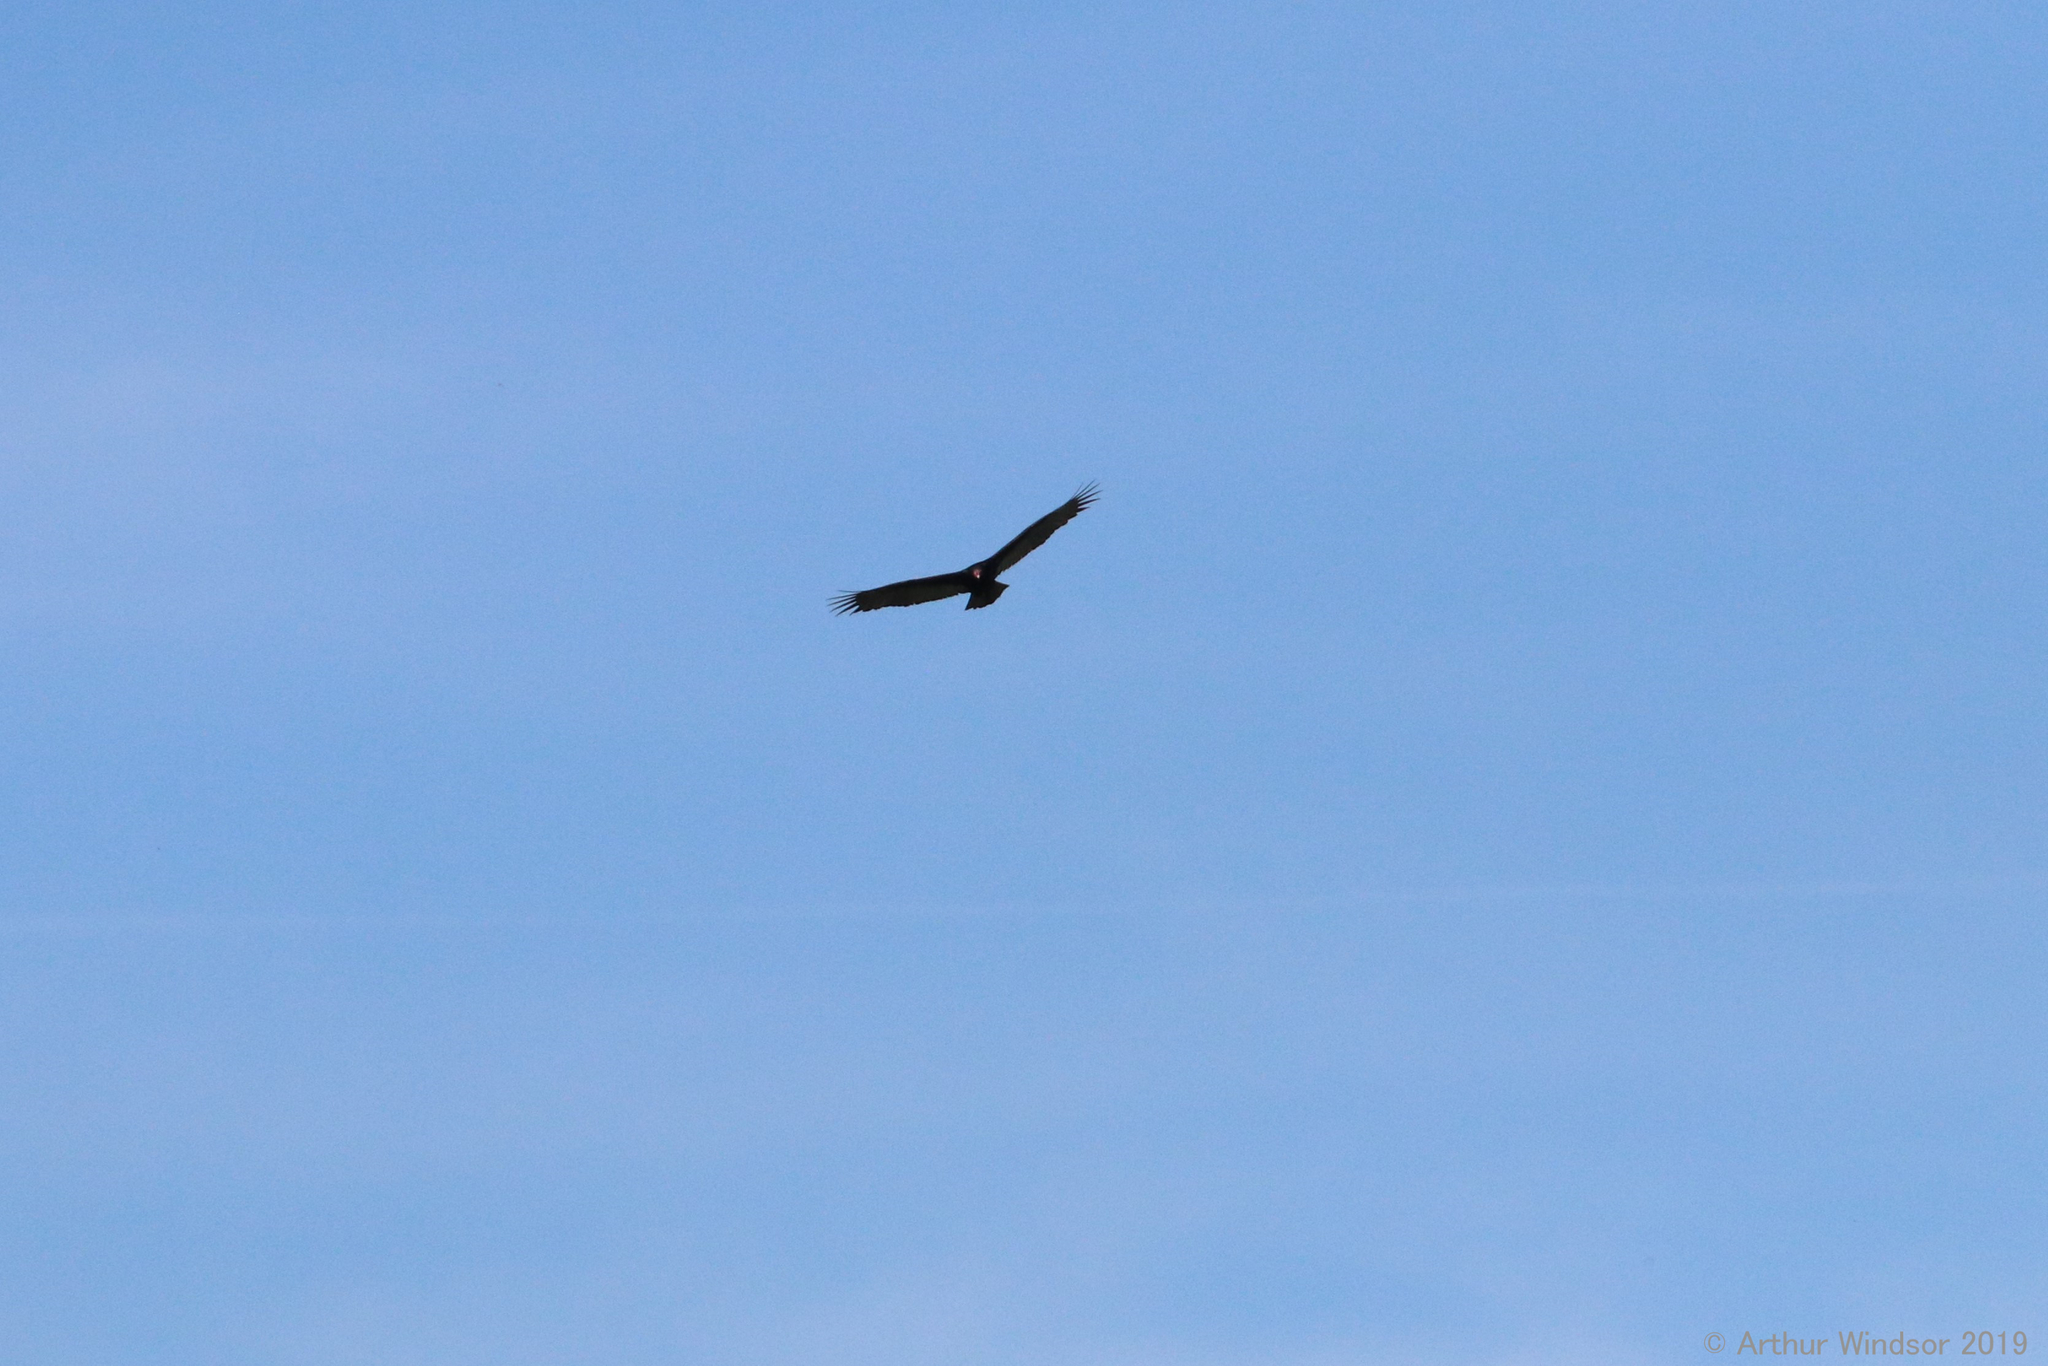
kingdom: Animalia
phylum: Chordata
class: Aves
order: Accipitriformes
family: Cathartidae
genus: Cathartes
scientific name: Cathartes aura
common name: Turkey vulture
